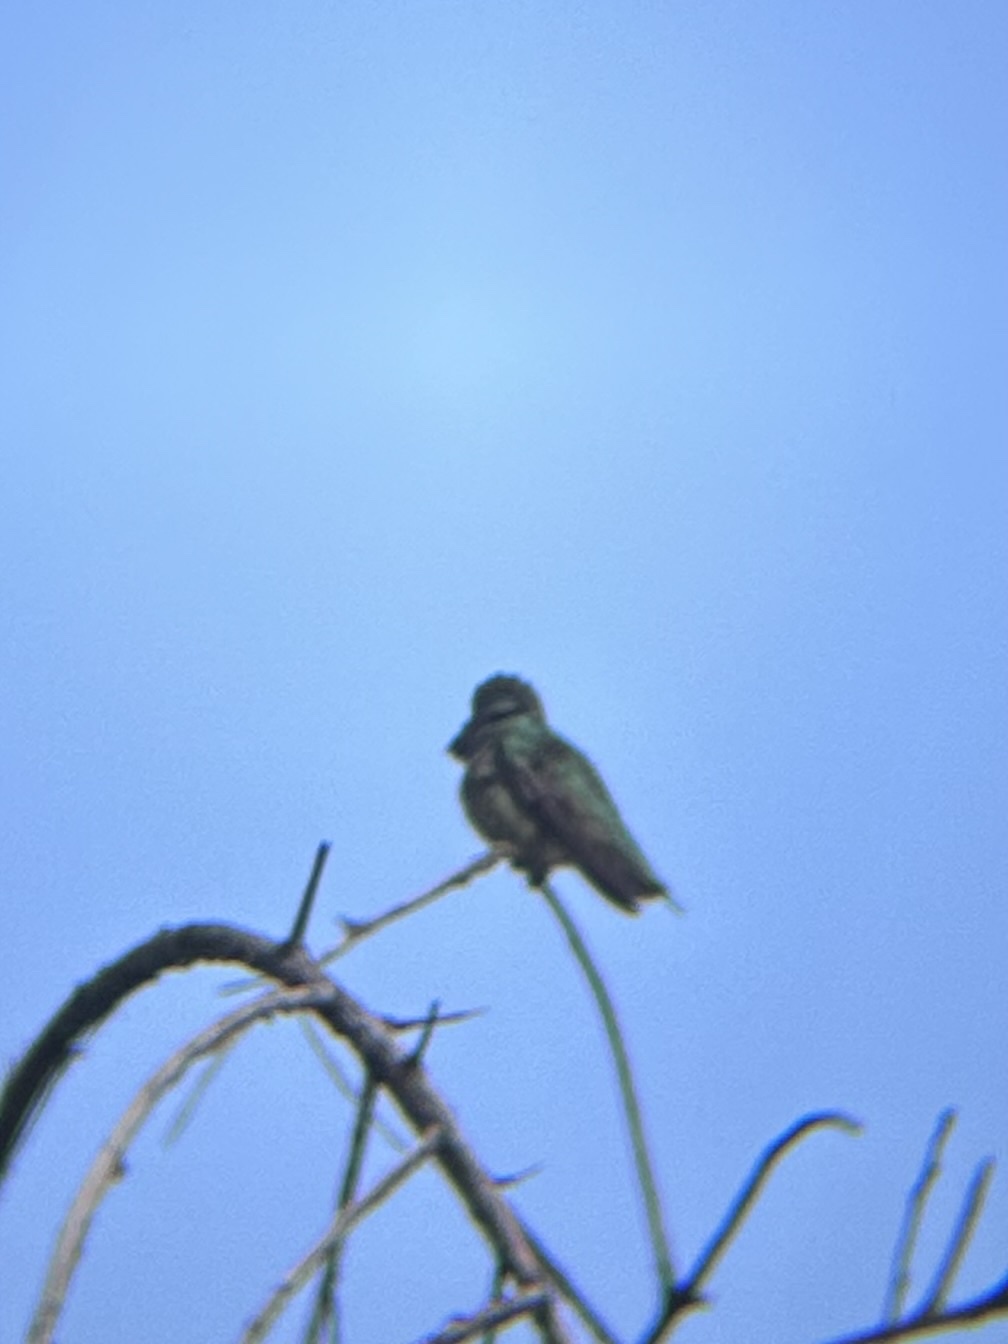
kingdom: Animalia
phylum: Chordata
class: Aves
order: Apodiformes
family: Trochilidae
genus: Calypte
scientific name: Calypte anna
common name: Anna's hummingbird
